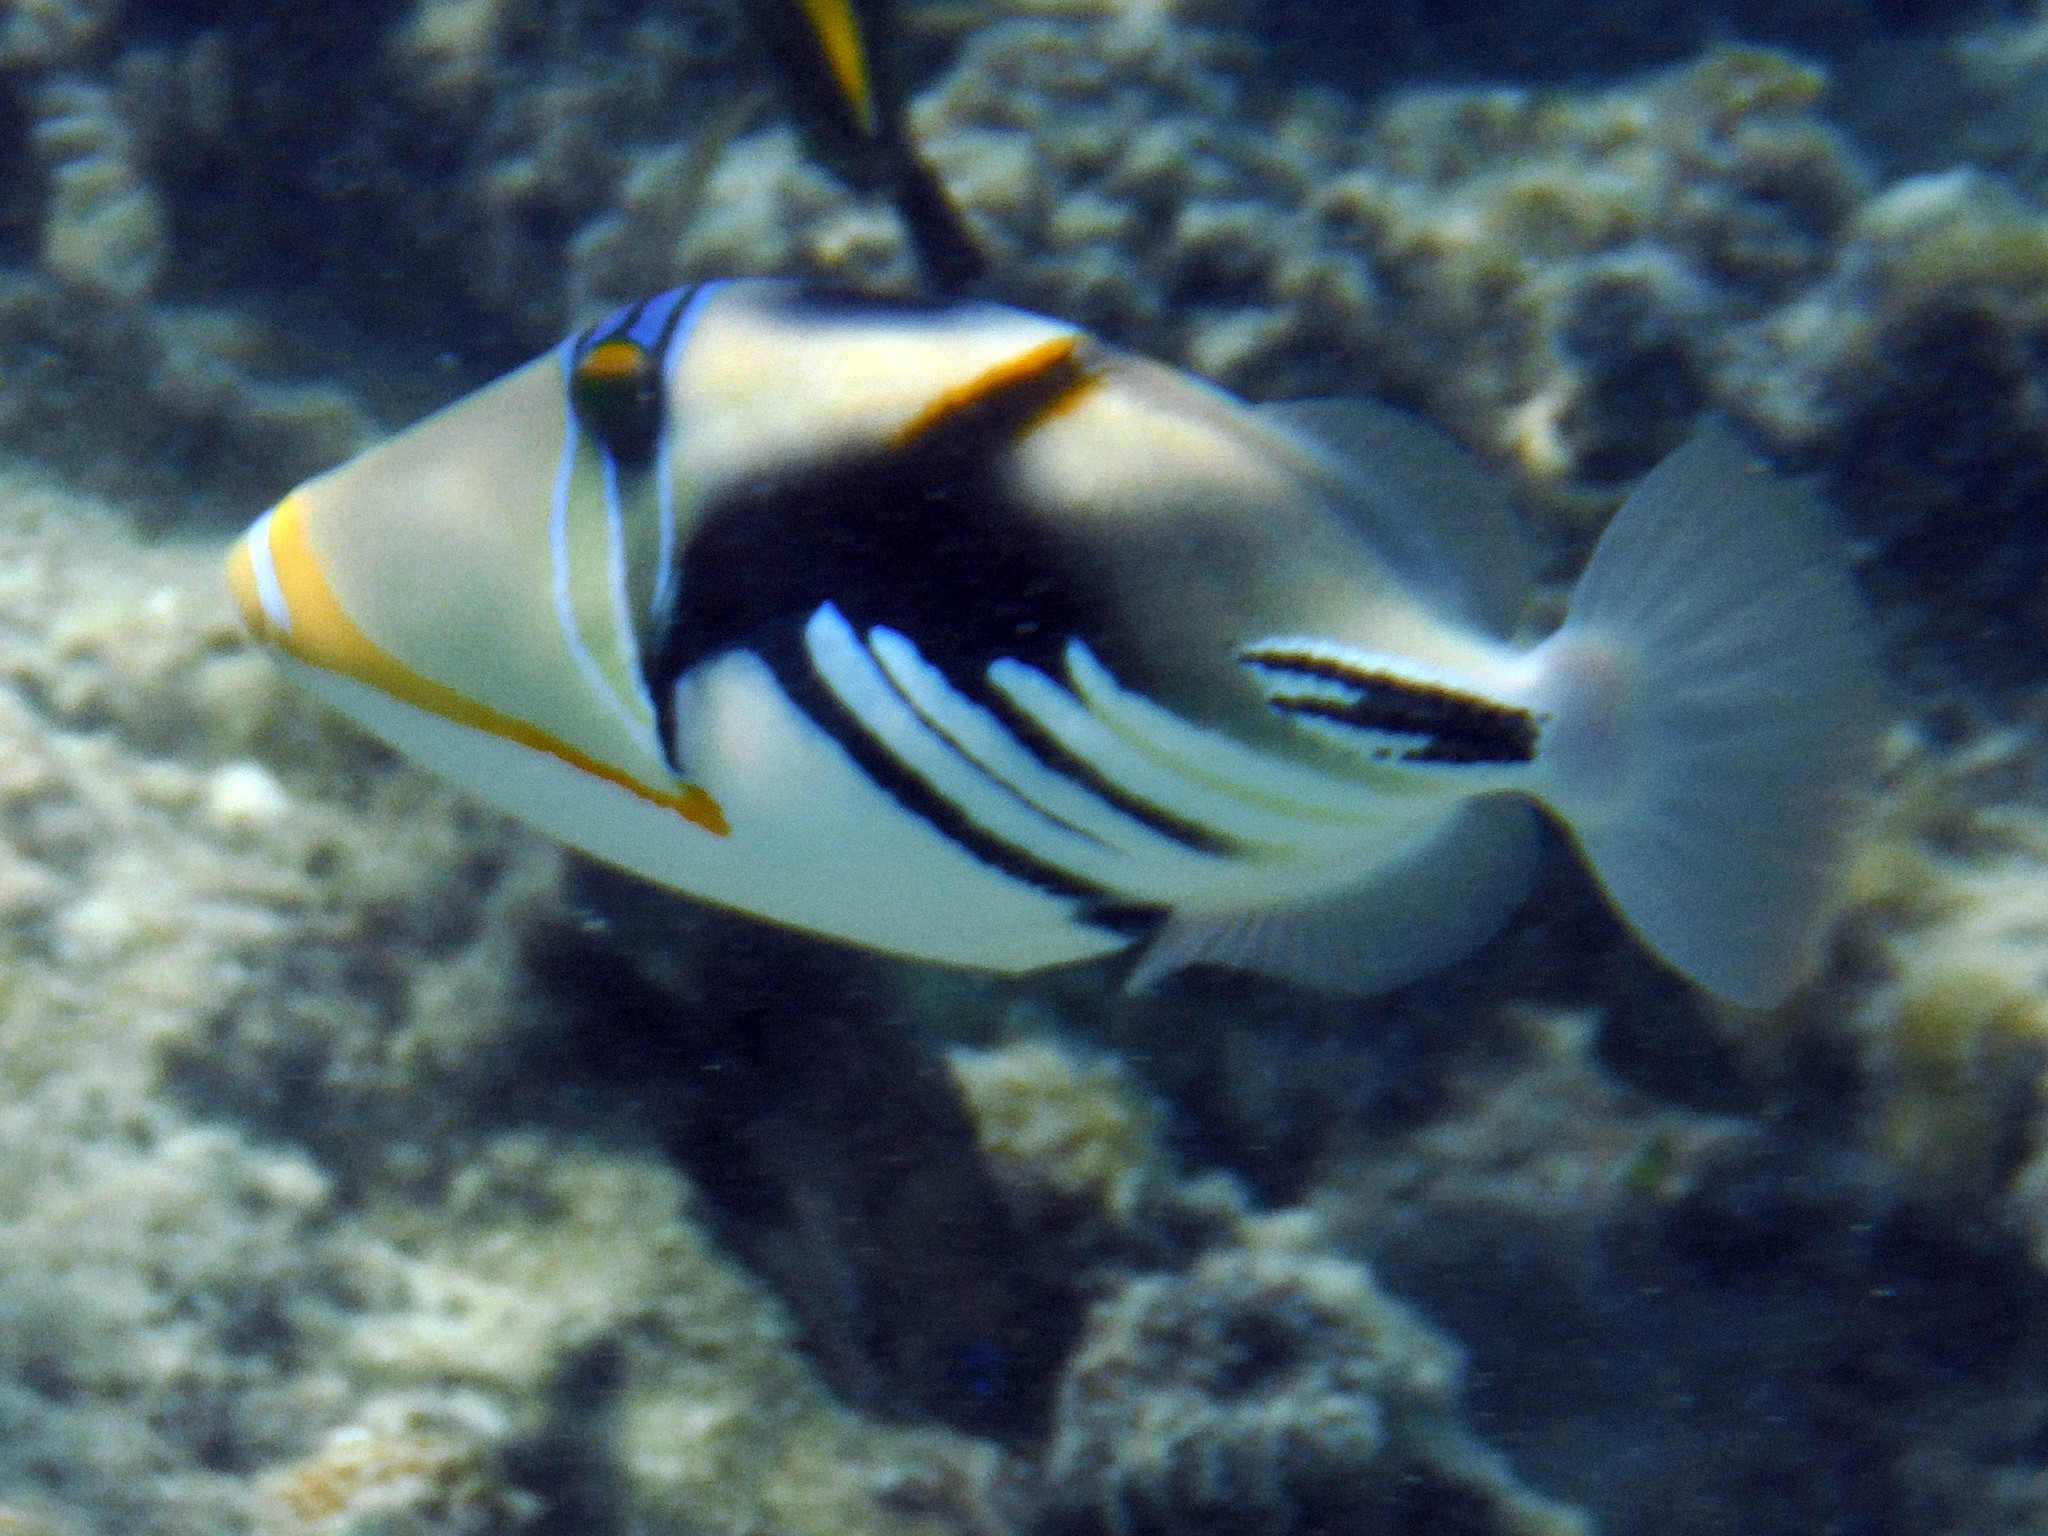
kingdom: Animalia
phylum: Chordata
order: Tetraodontiformes
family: Balistidae
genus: Rhinecanthus
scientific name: Rhinecanthus aculeatus
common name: White-banded triggerfish
